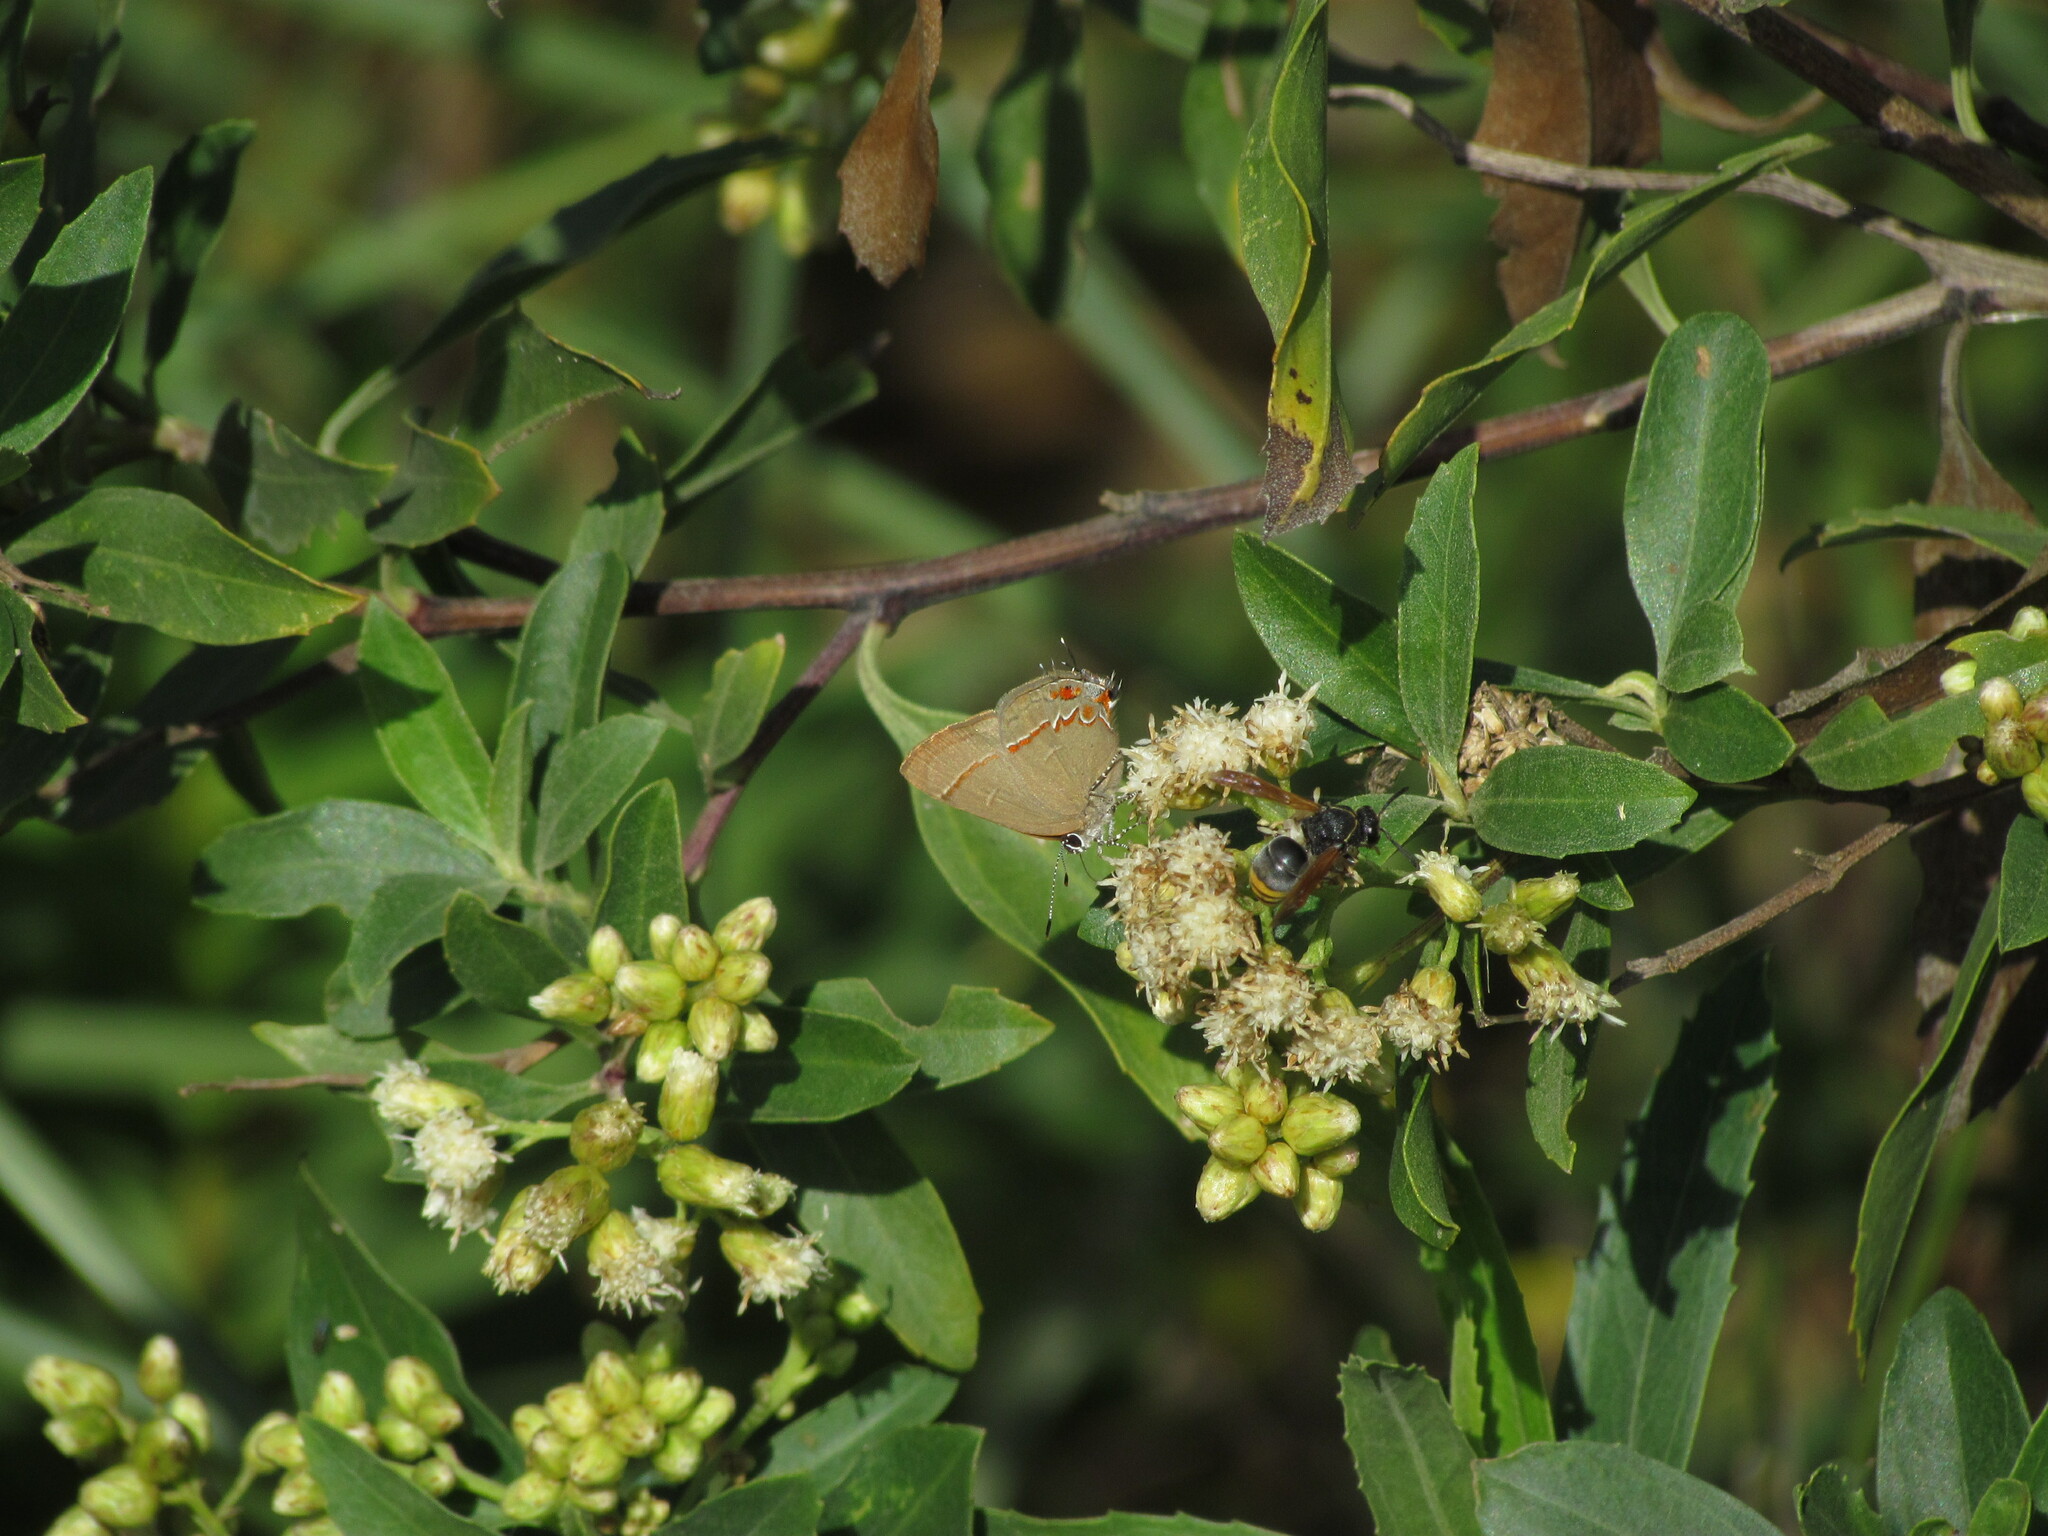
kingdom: Animalia
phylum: Arthropoda
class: Insecta
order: Lepidoptera
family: Lycaenidae
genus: Calycopis
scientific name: Calycopis caulonia
